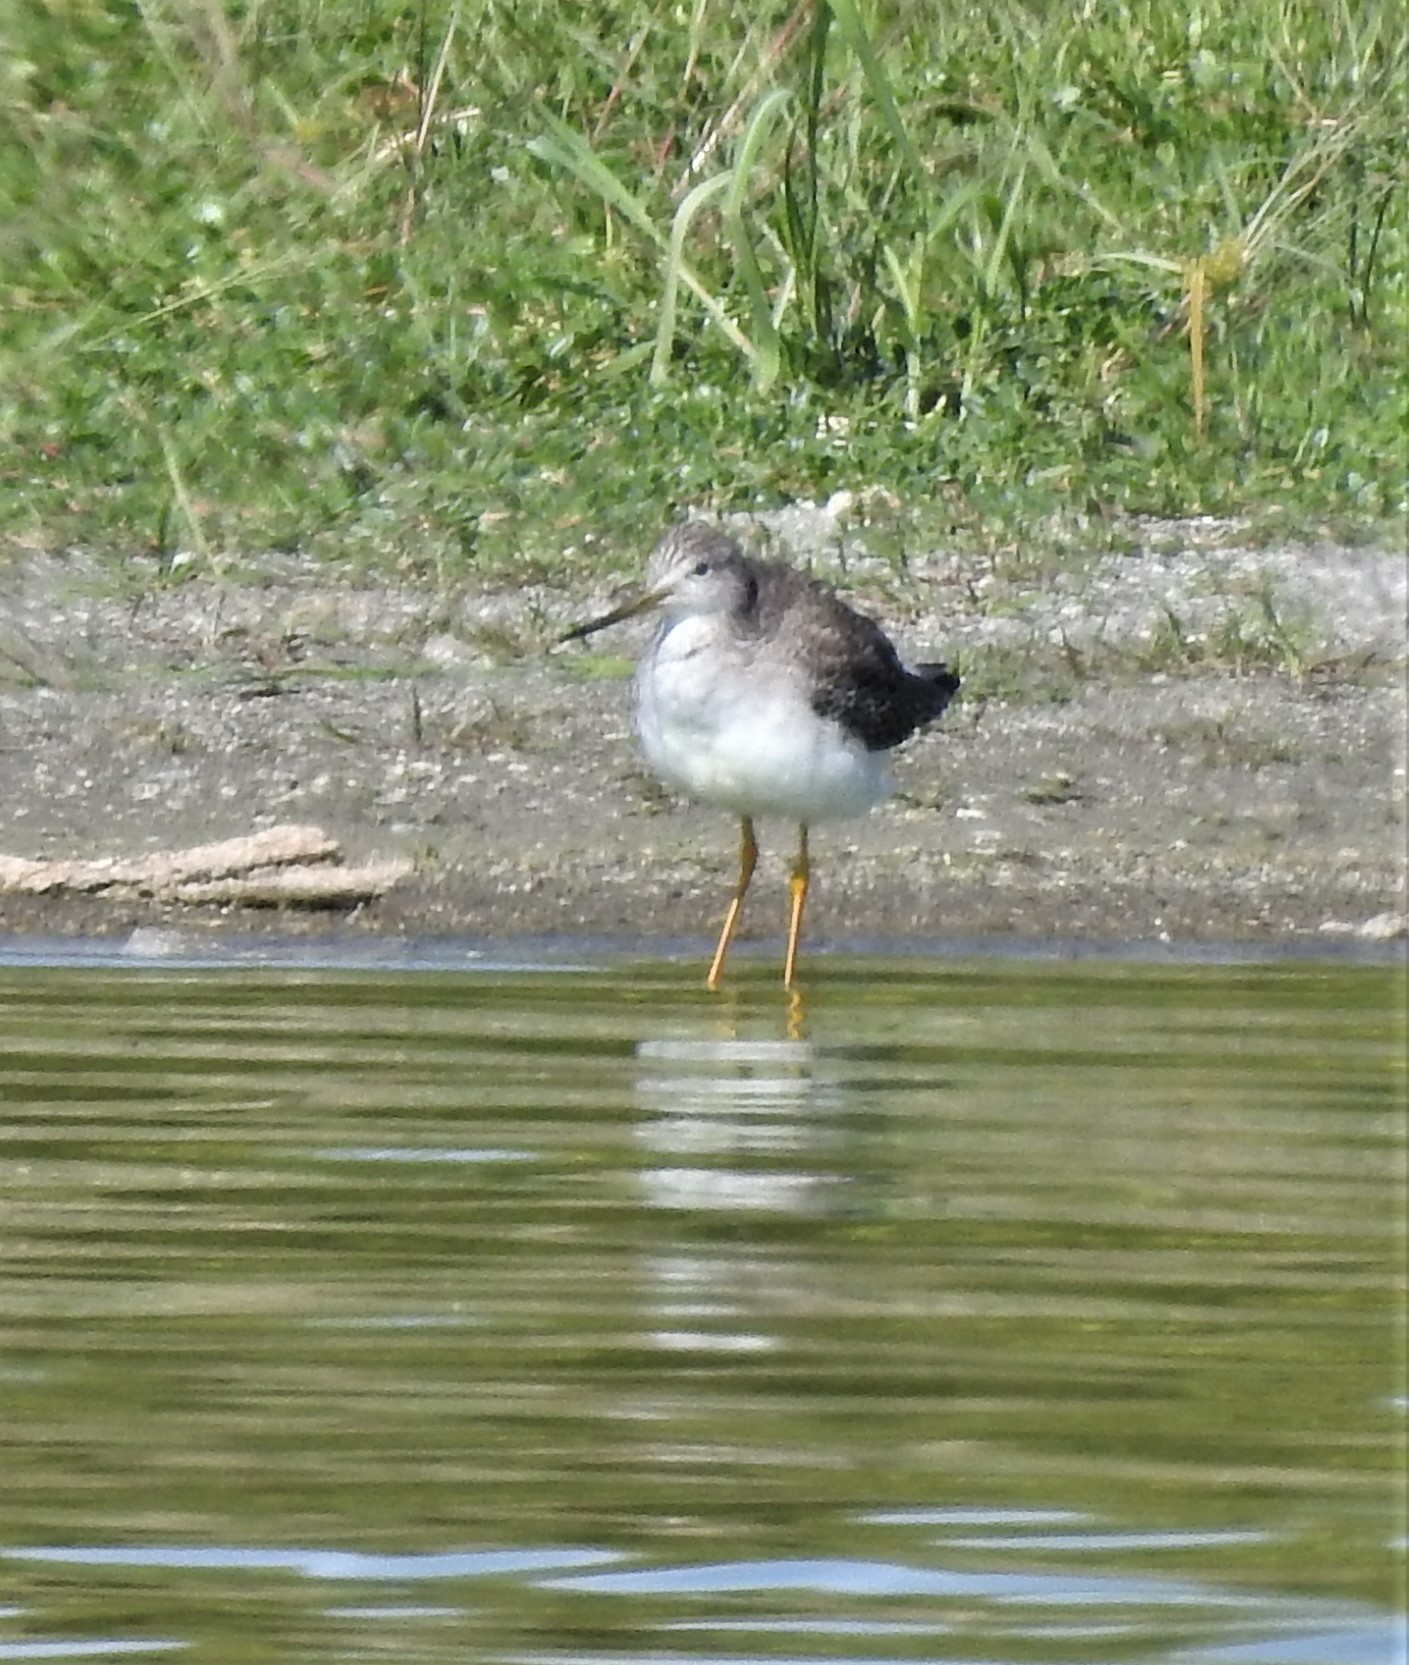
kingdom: Animalia
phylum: Chordata
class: Aves
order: Charadriiformes
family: Scolopacidae
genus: Tringa
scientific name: Tringa melanoleuca
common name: Greater yellowlegs
